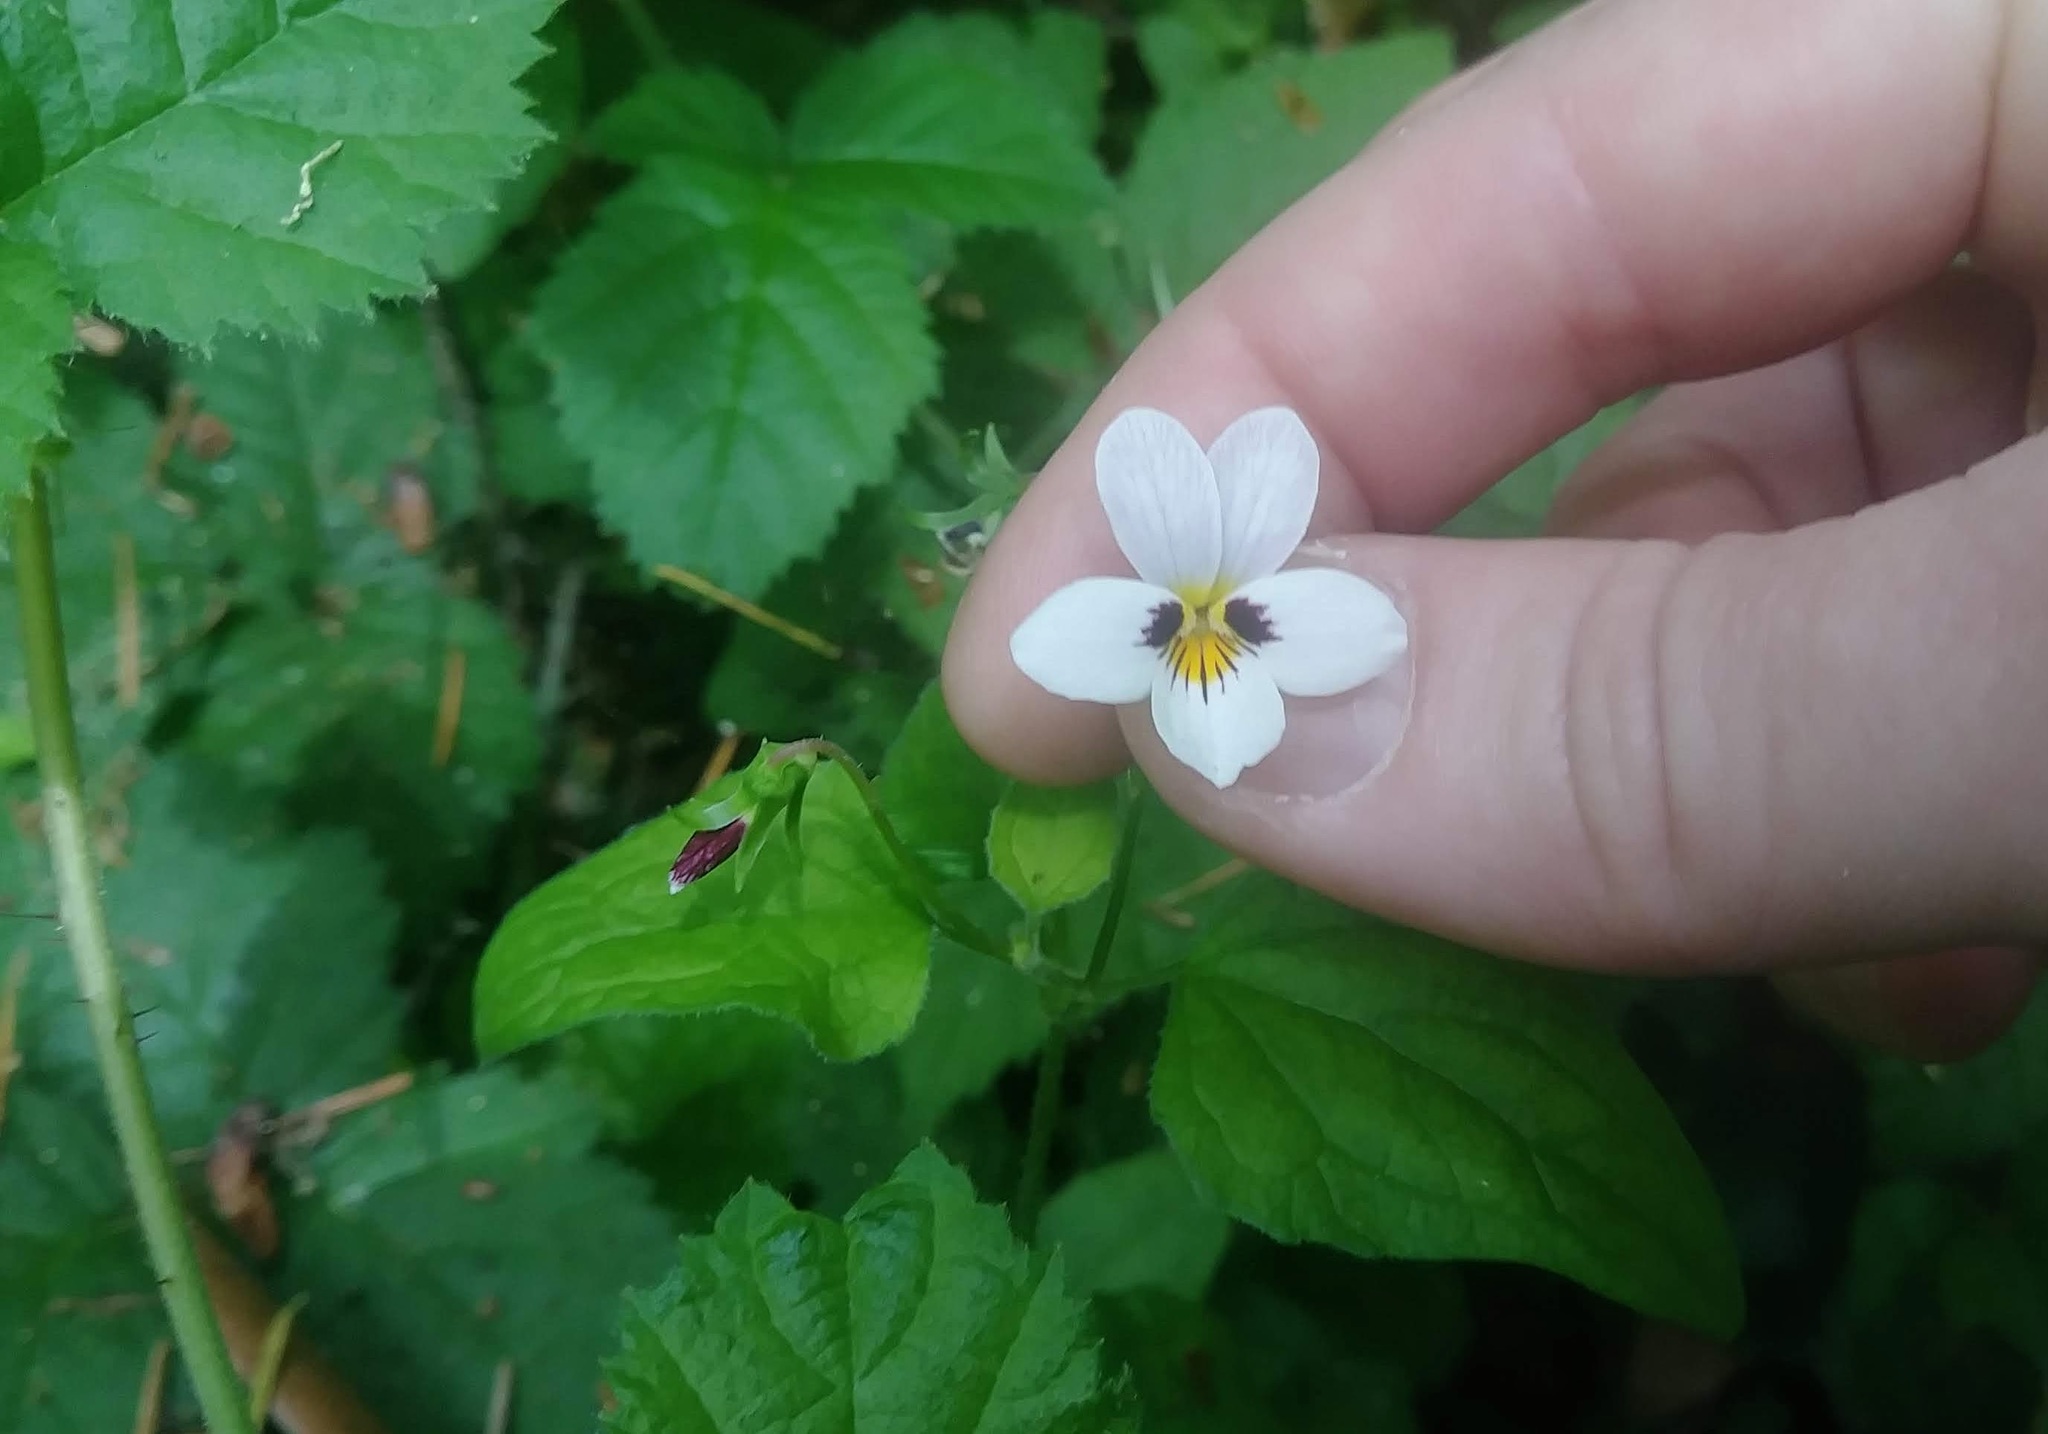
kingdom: Plantae
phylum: Tracheophyta
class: Magnoliopsida
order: Malpighiales
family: Violaceae
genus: Viola
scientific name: Viola ocellata
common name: Western heart's ease
